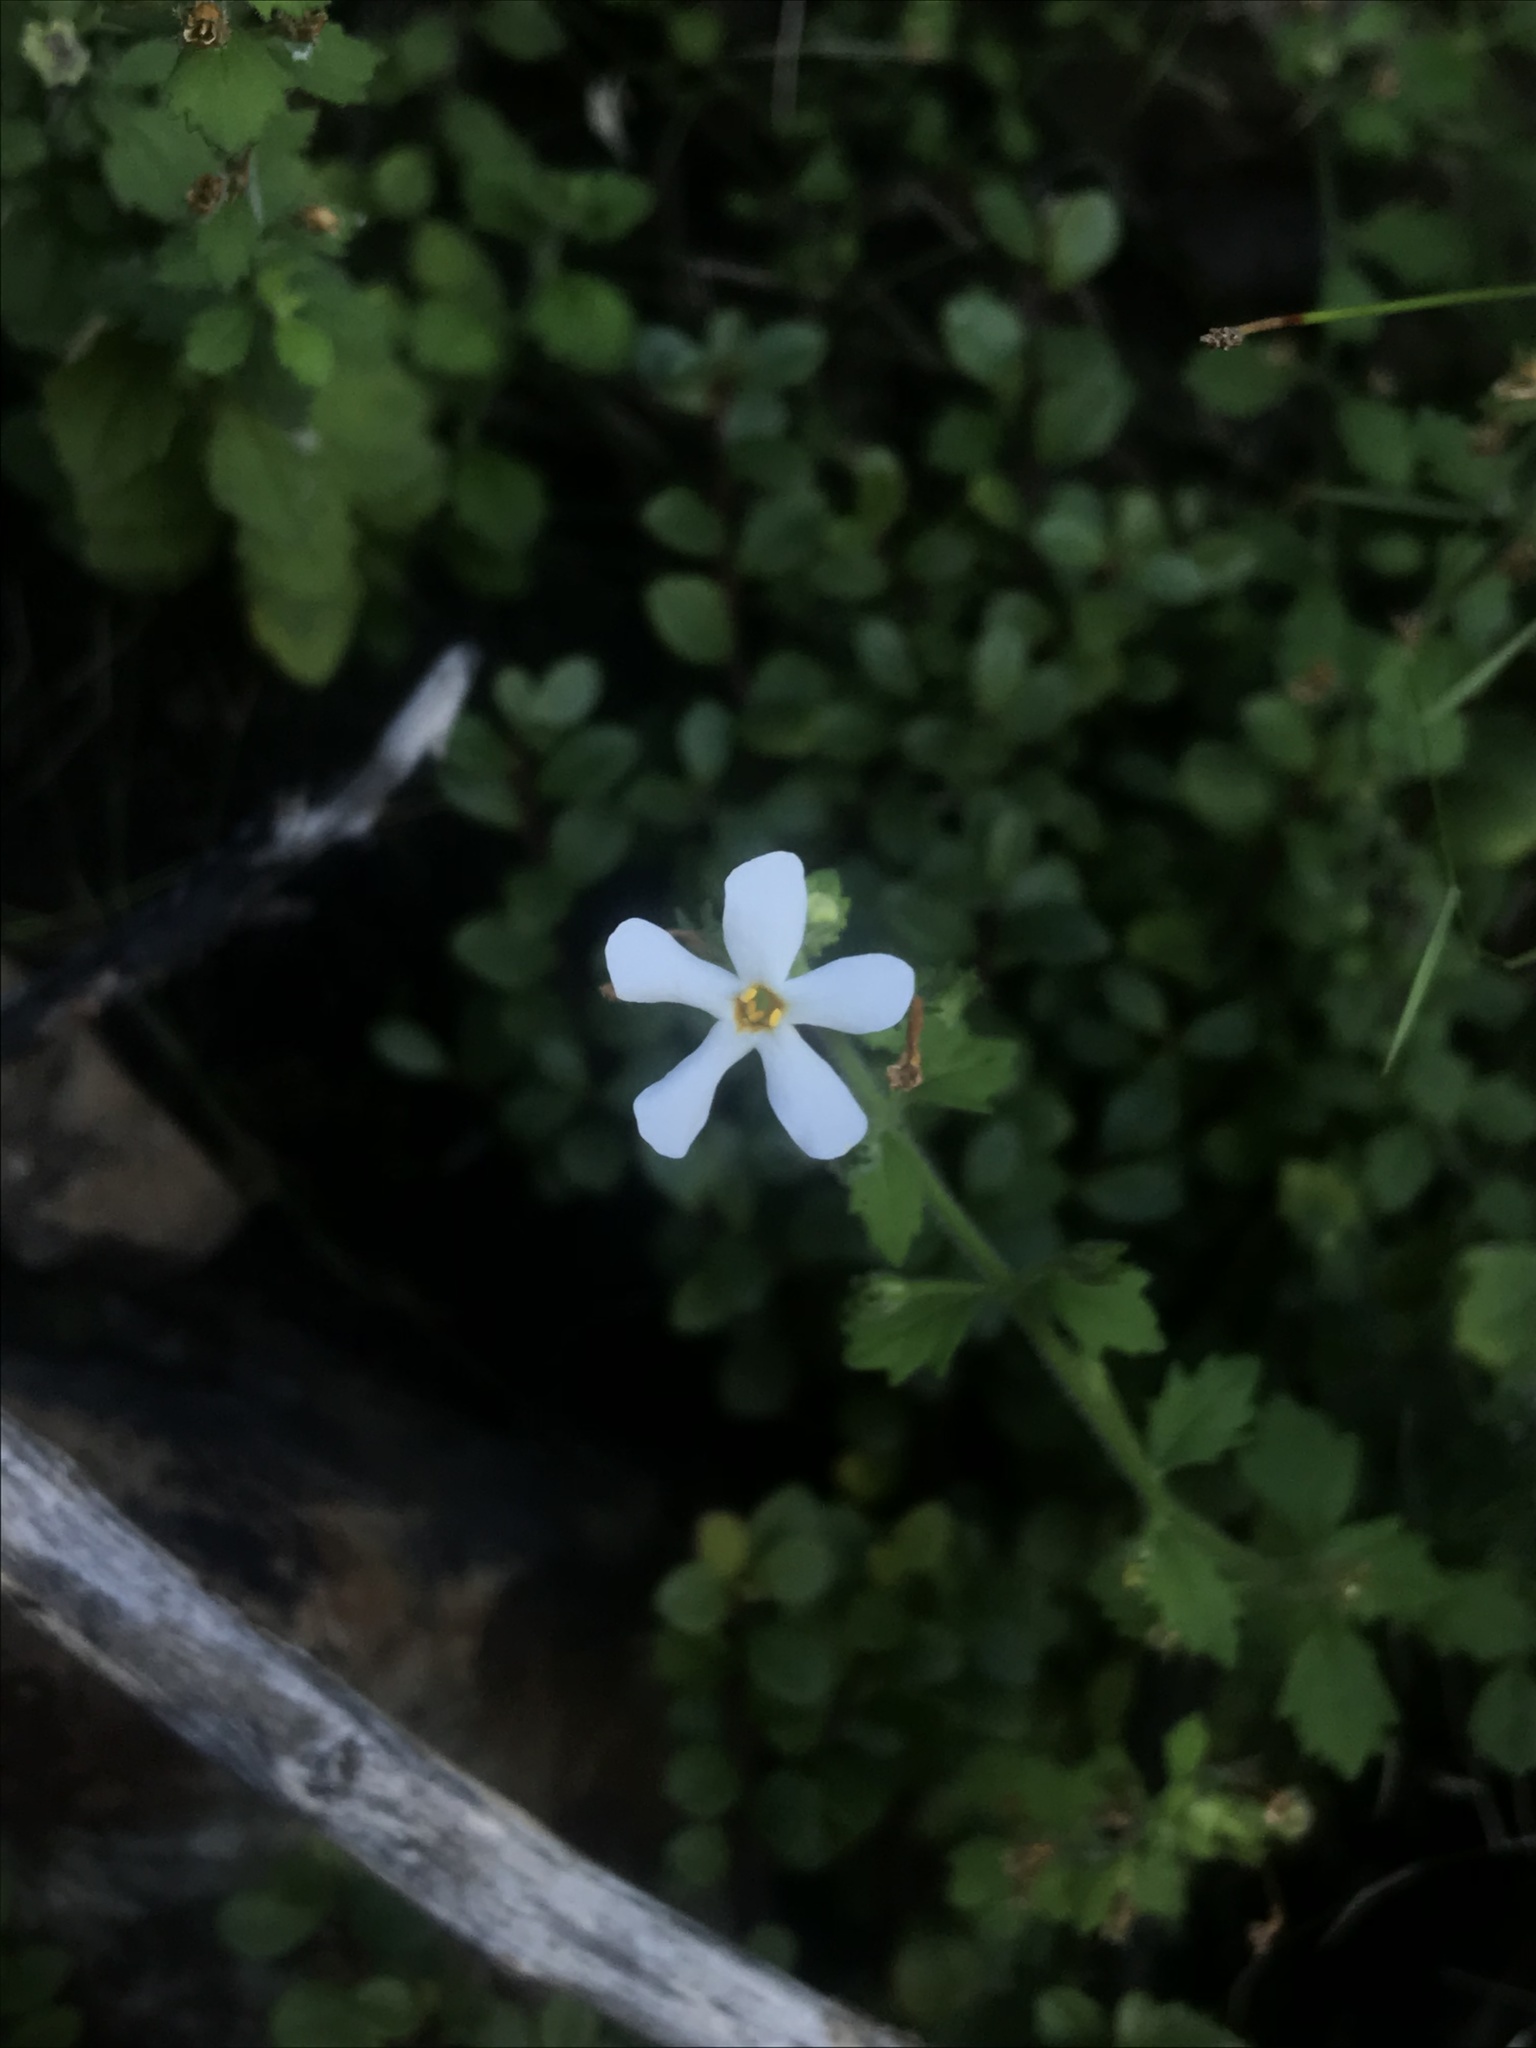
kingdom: Plantae
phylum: Tracheophyta
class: Magnoliopsida
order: Lamiales
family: Scrophulariaceae
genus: Chaenostoma
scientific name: Chaenostoma hispidum
